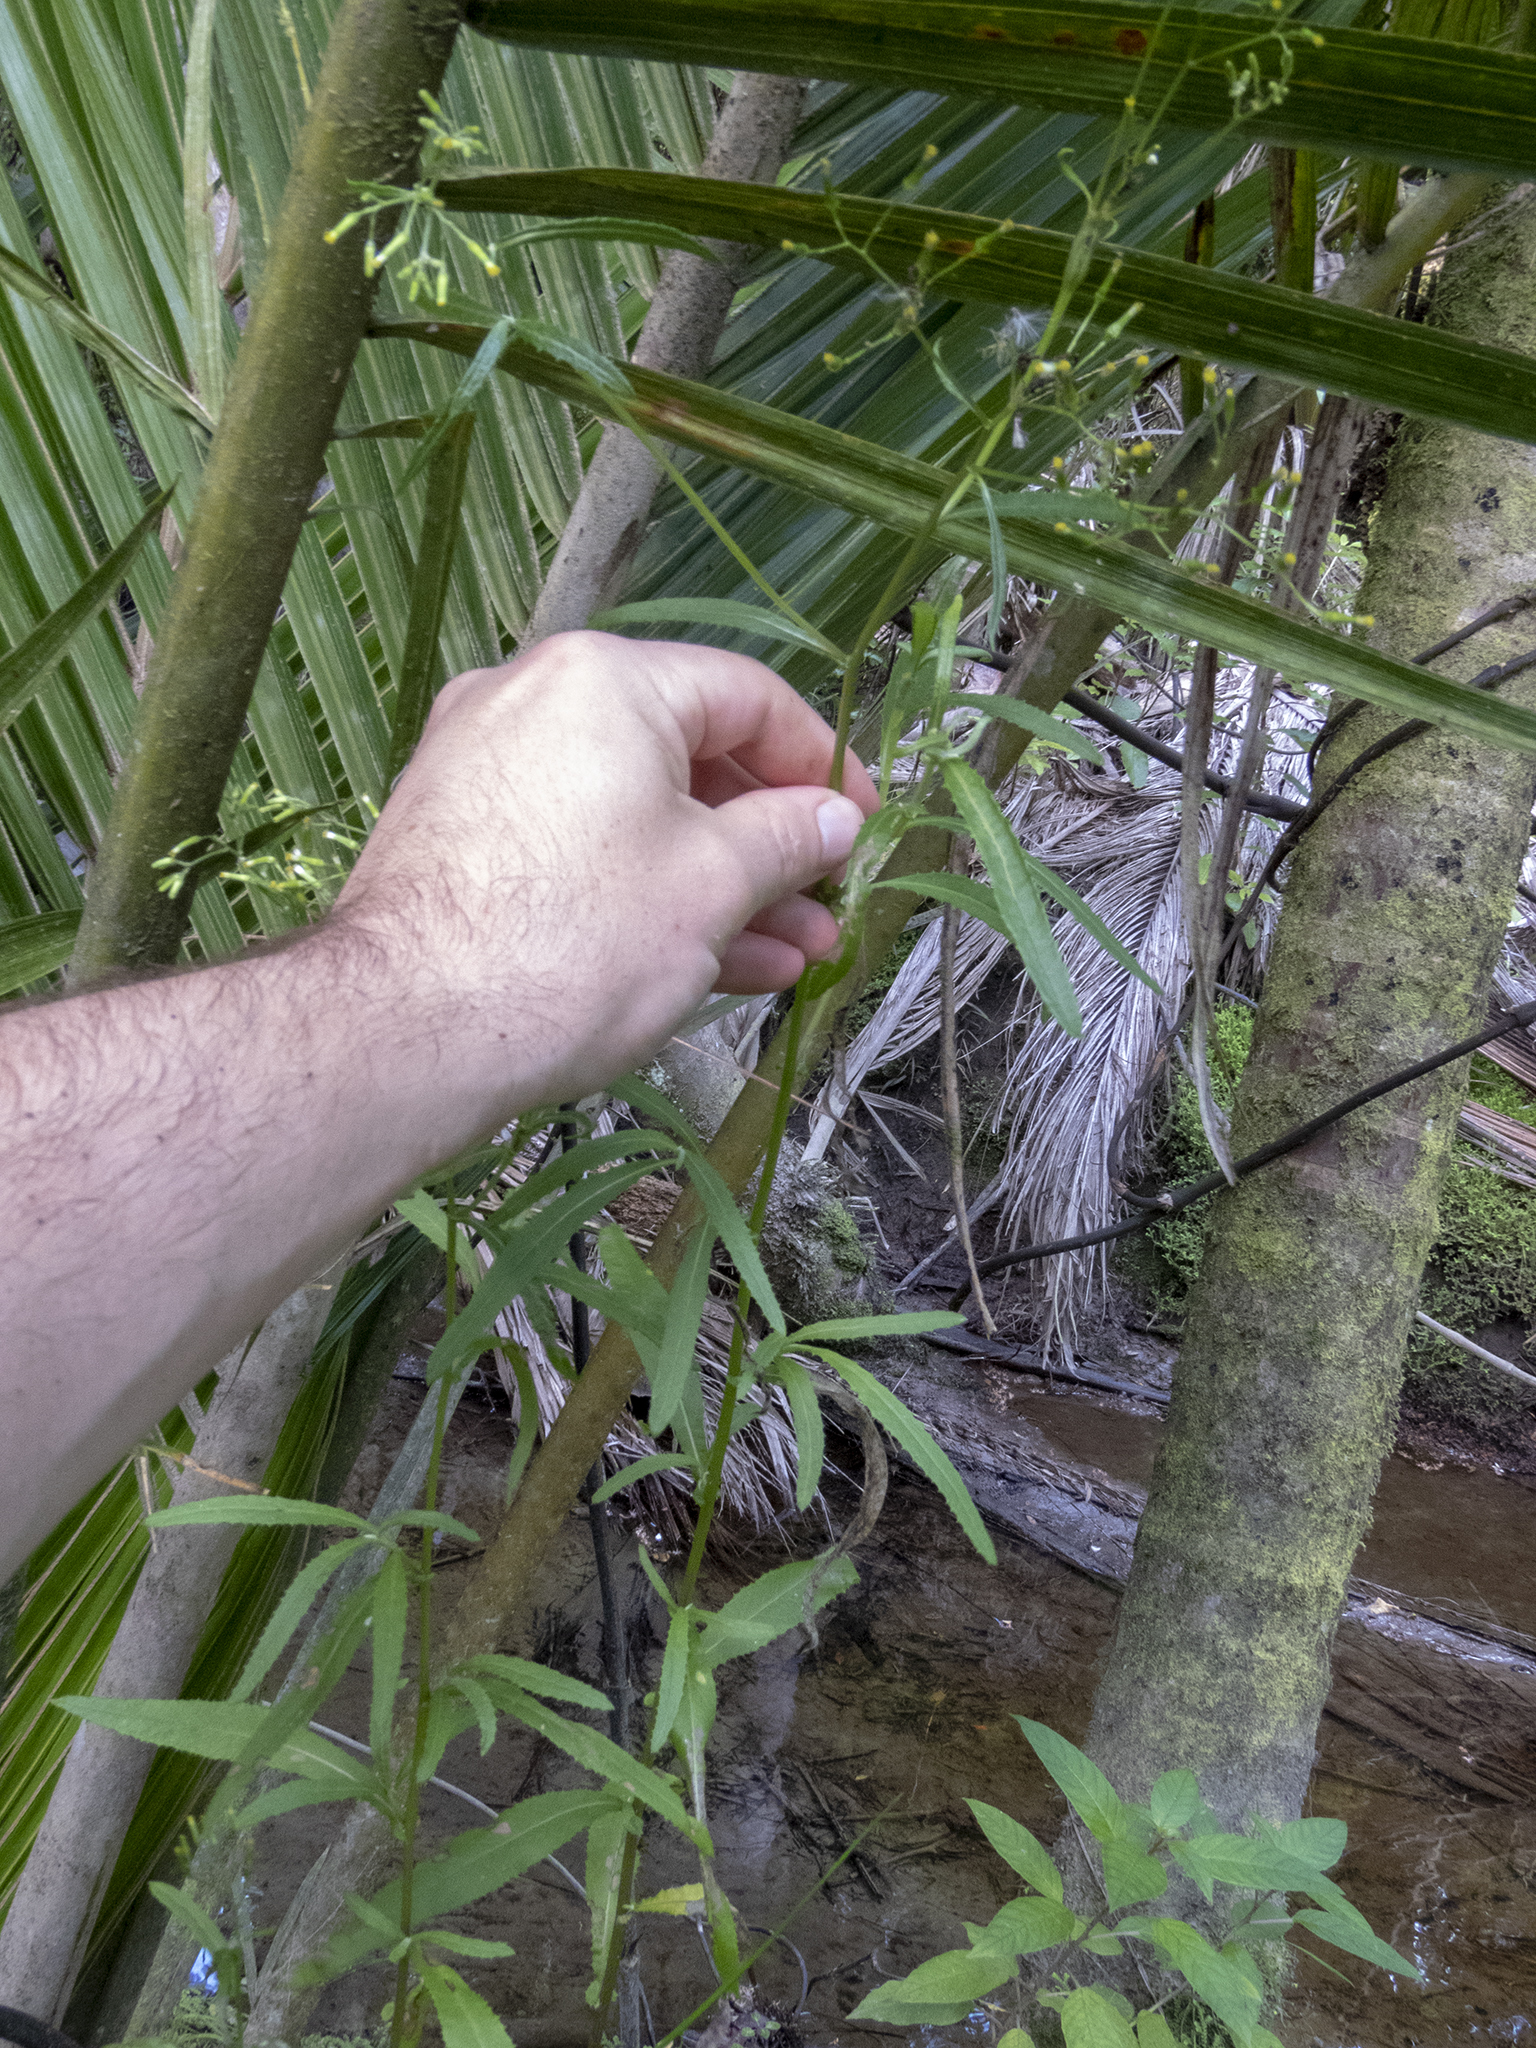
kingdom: Plantae
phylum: Tracheophyta
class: Magnoliopsida
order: Asterales
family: Asteraceae
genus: Senecio
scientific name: Senecio minimus
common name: Toothed fireweed
